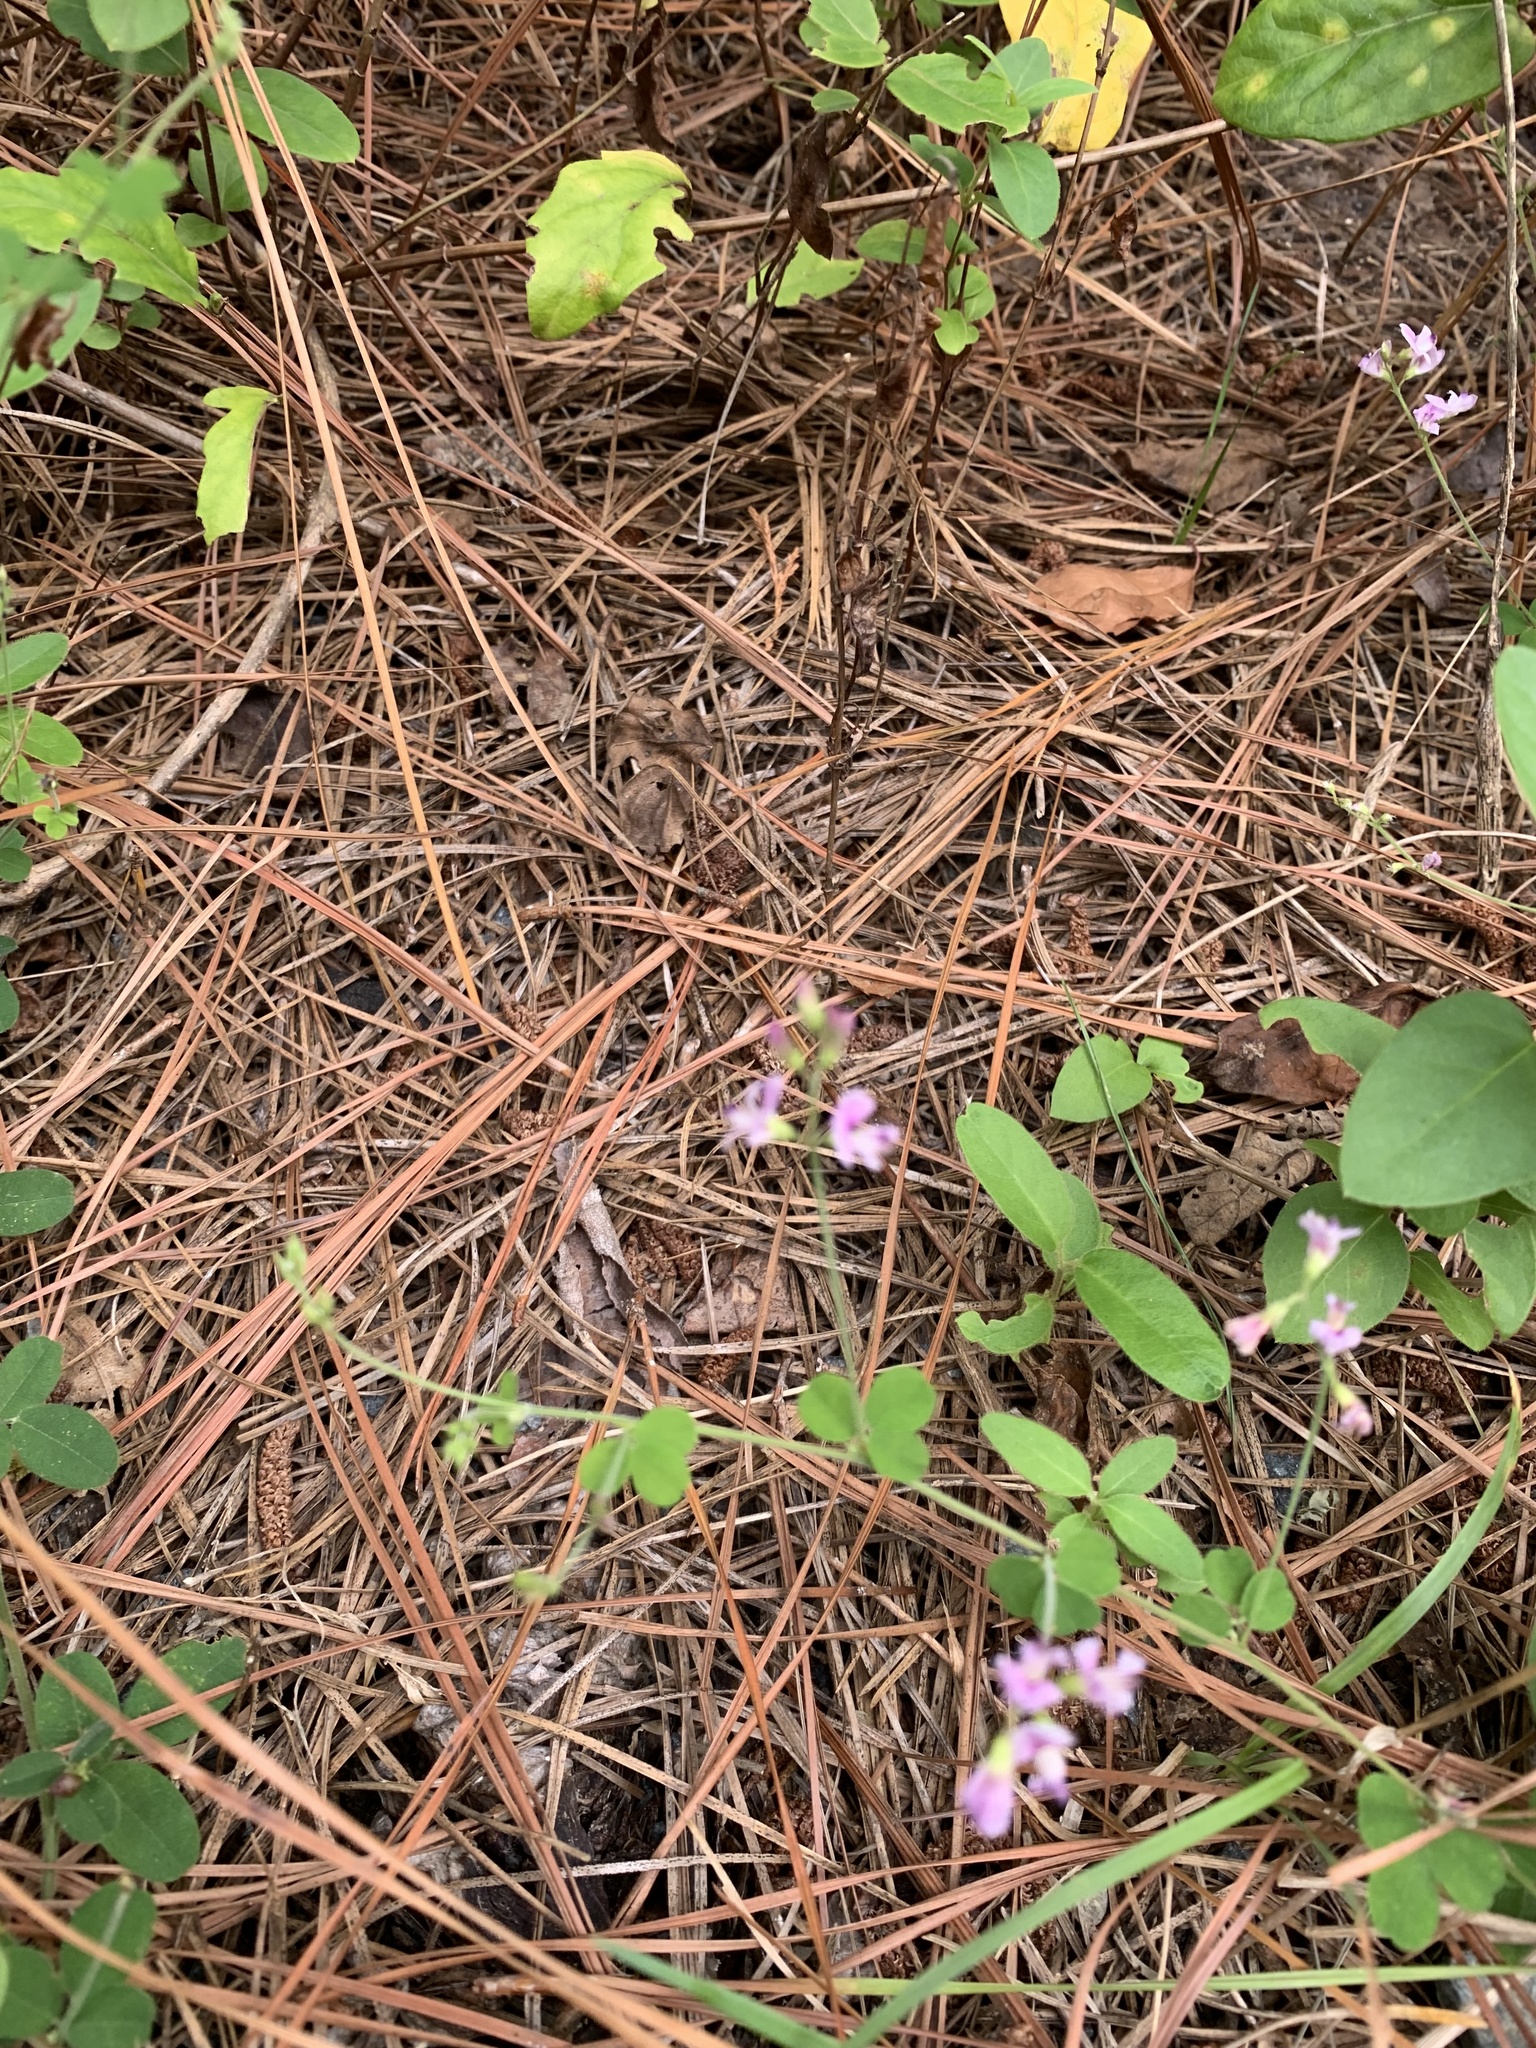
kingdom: Plantae
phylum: Tracheophyta
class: Magnoliopsida
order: Fabales
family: Fabaceae
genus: Lespedeza
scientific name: Lespedeza procumbens
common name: Downy trailing bush-clover
